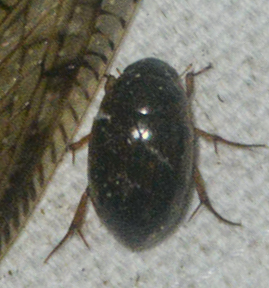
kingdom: Animalia
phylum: Arthropoda
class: Insecta
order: Coleoptera
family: Hydrophilidae
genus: Tropisternus
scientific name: Tropisternus collaris
